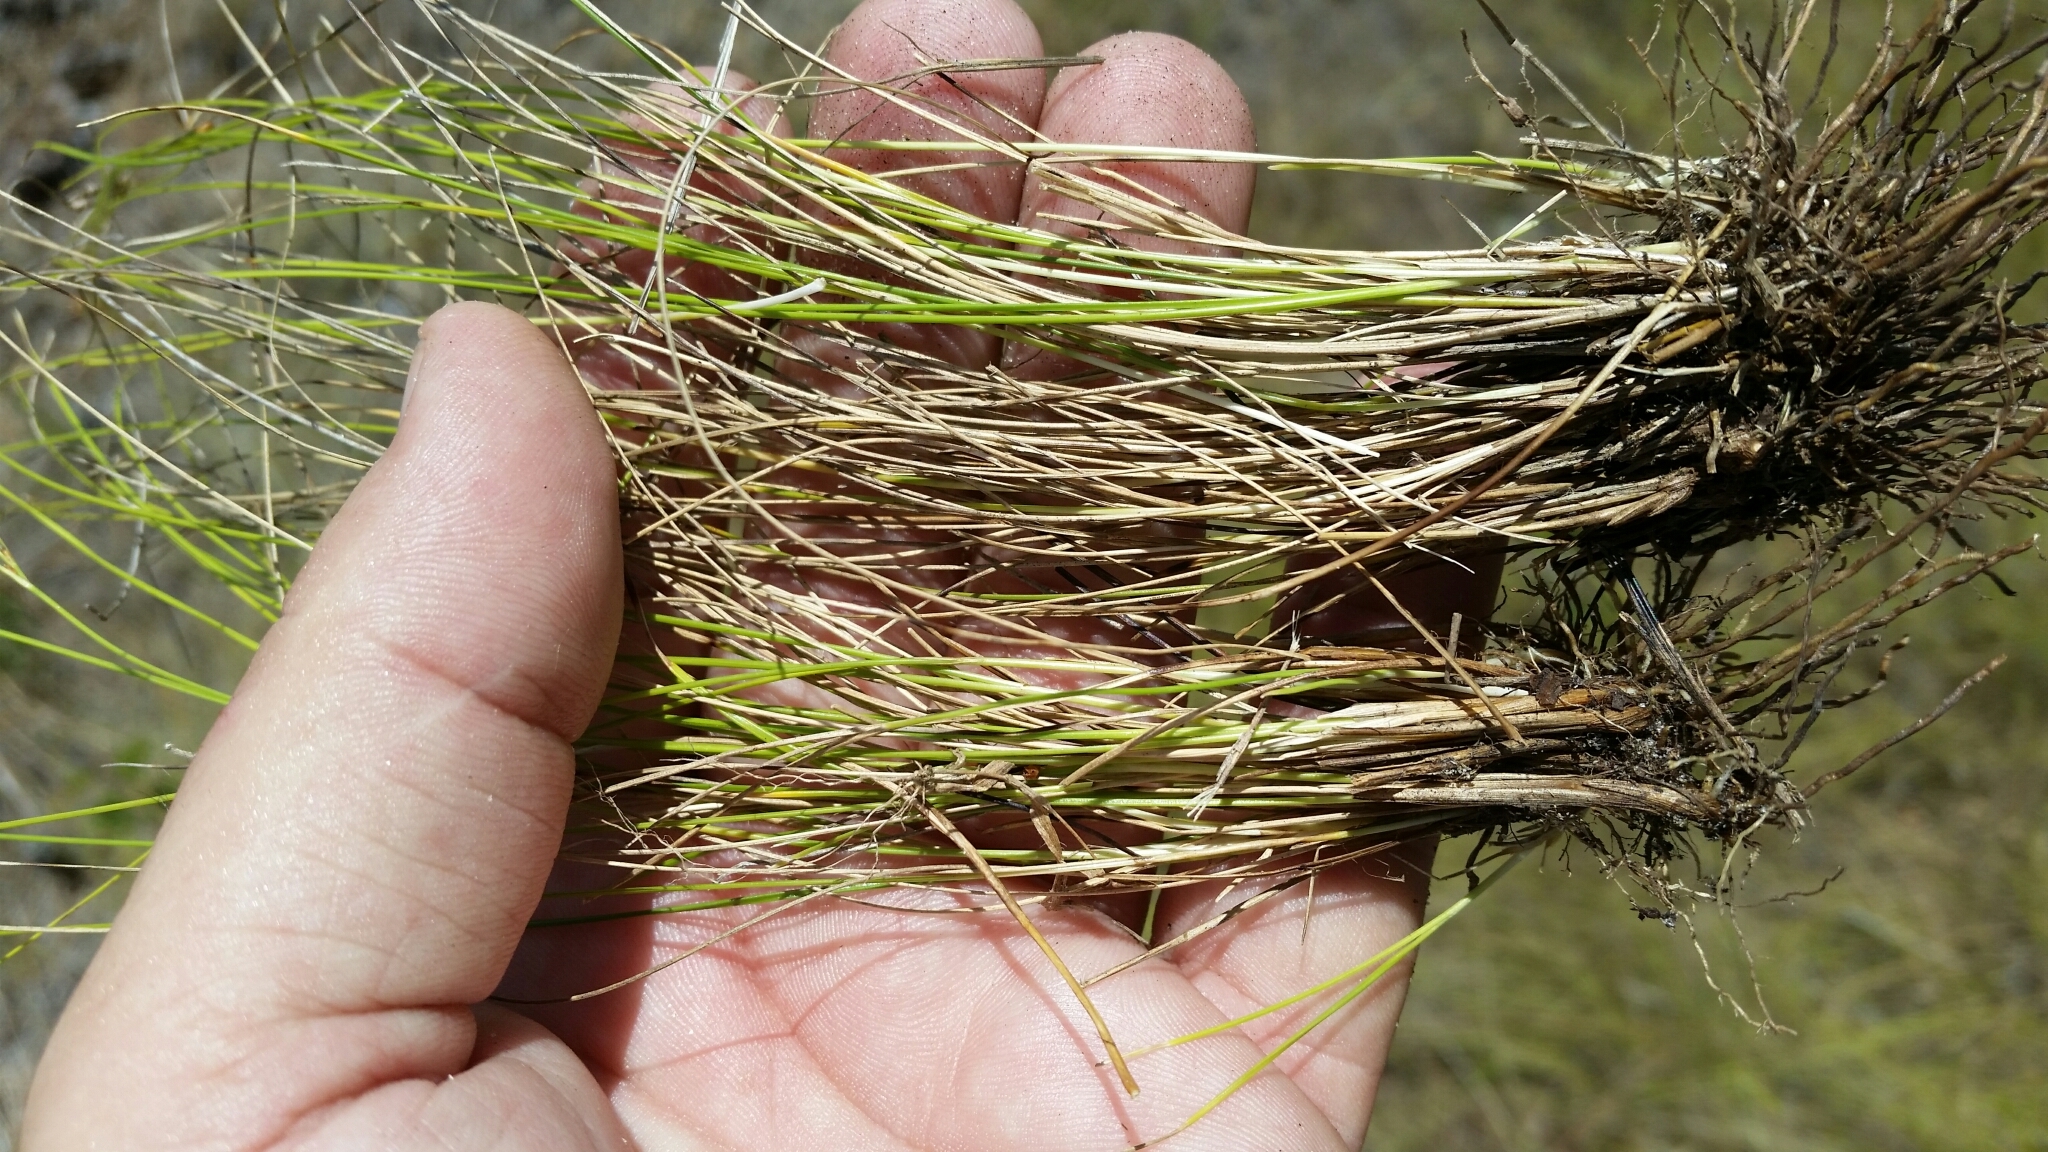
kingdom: Plantae
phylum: Tracheophyta
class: Liliopsida
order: Poales
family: Cyperaceae
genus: Rhynchospora
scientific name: Rhynchospora plumosa
